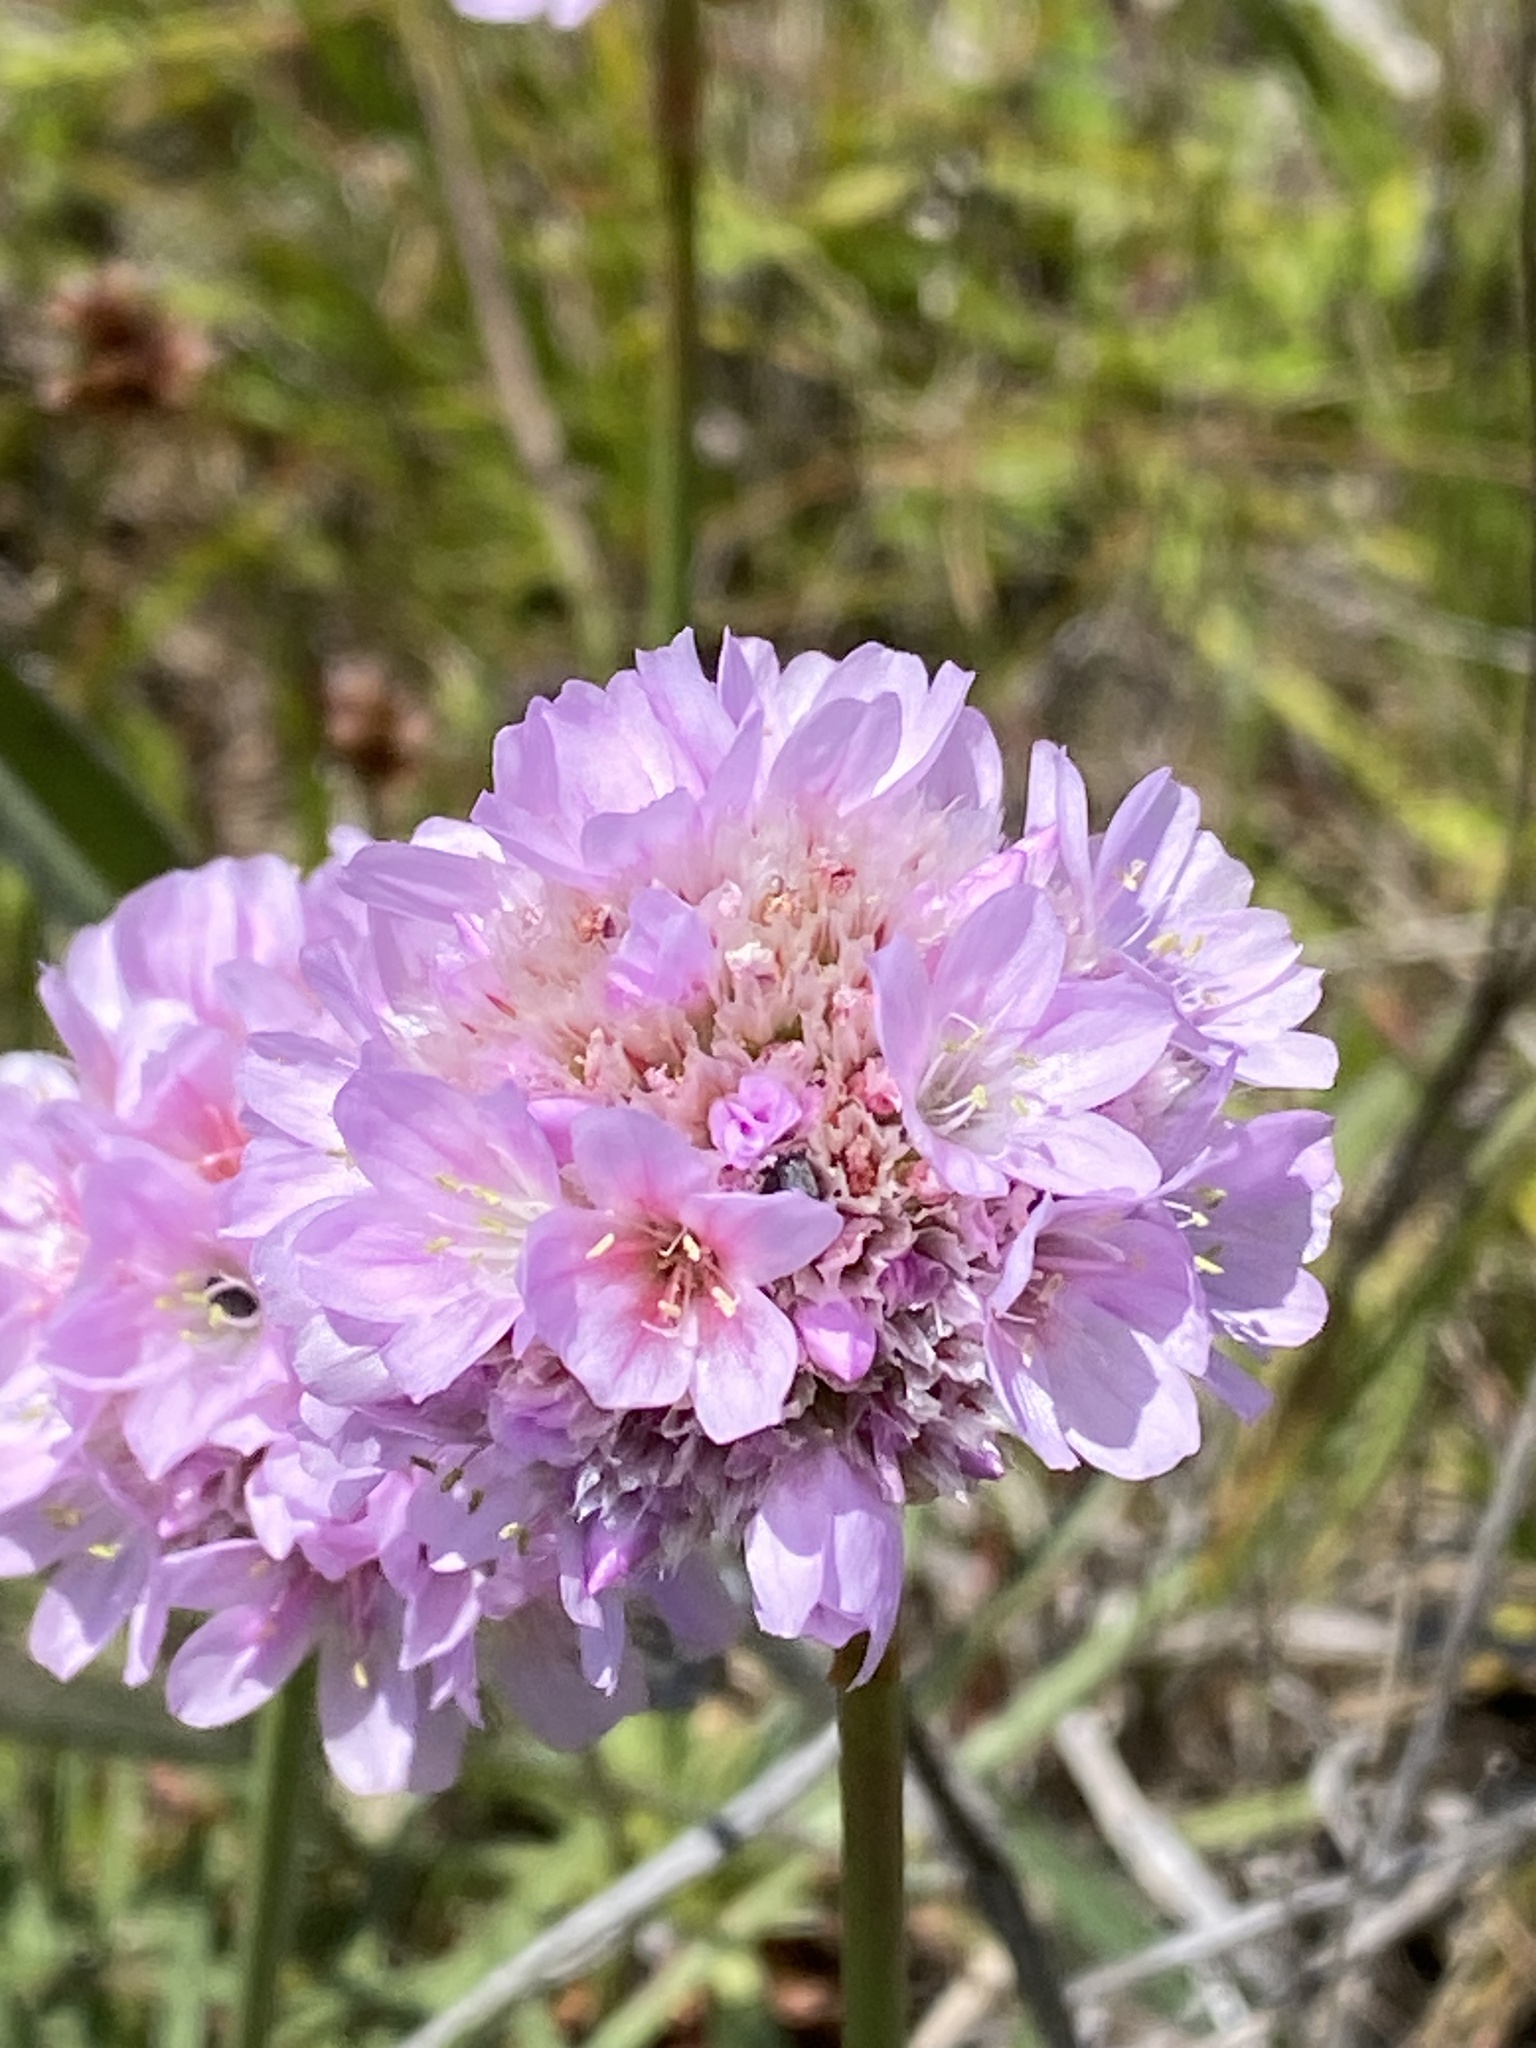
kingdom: Plantae
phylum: Tracheophyta
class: Magnoliopsida
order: Caryophyllales
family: Plumbaginaceae
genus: Armeria
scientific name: Armeria maritima
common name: Thrift
